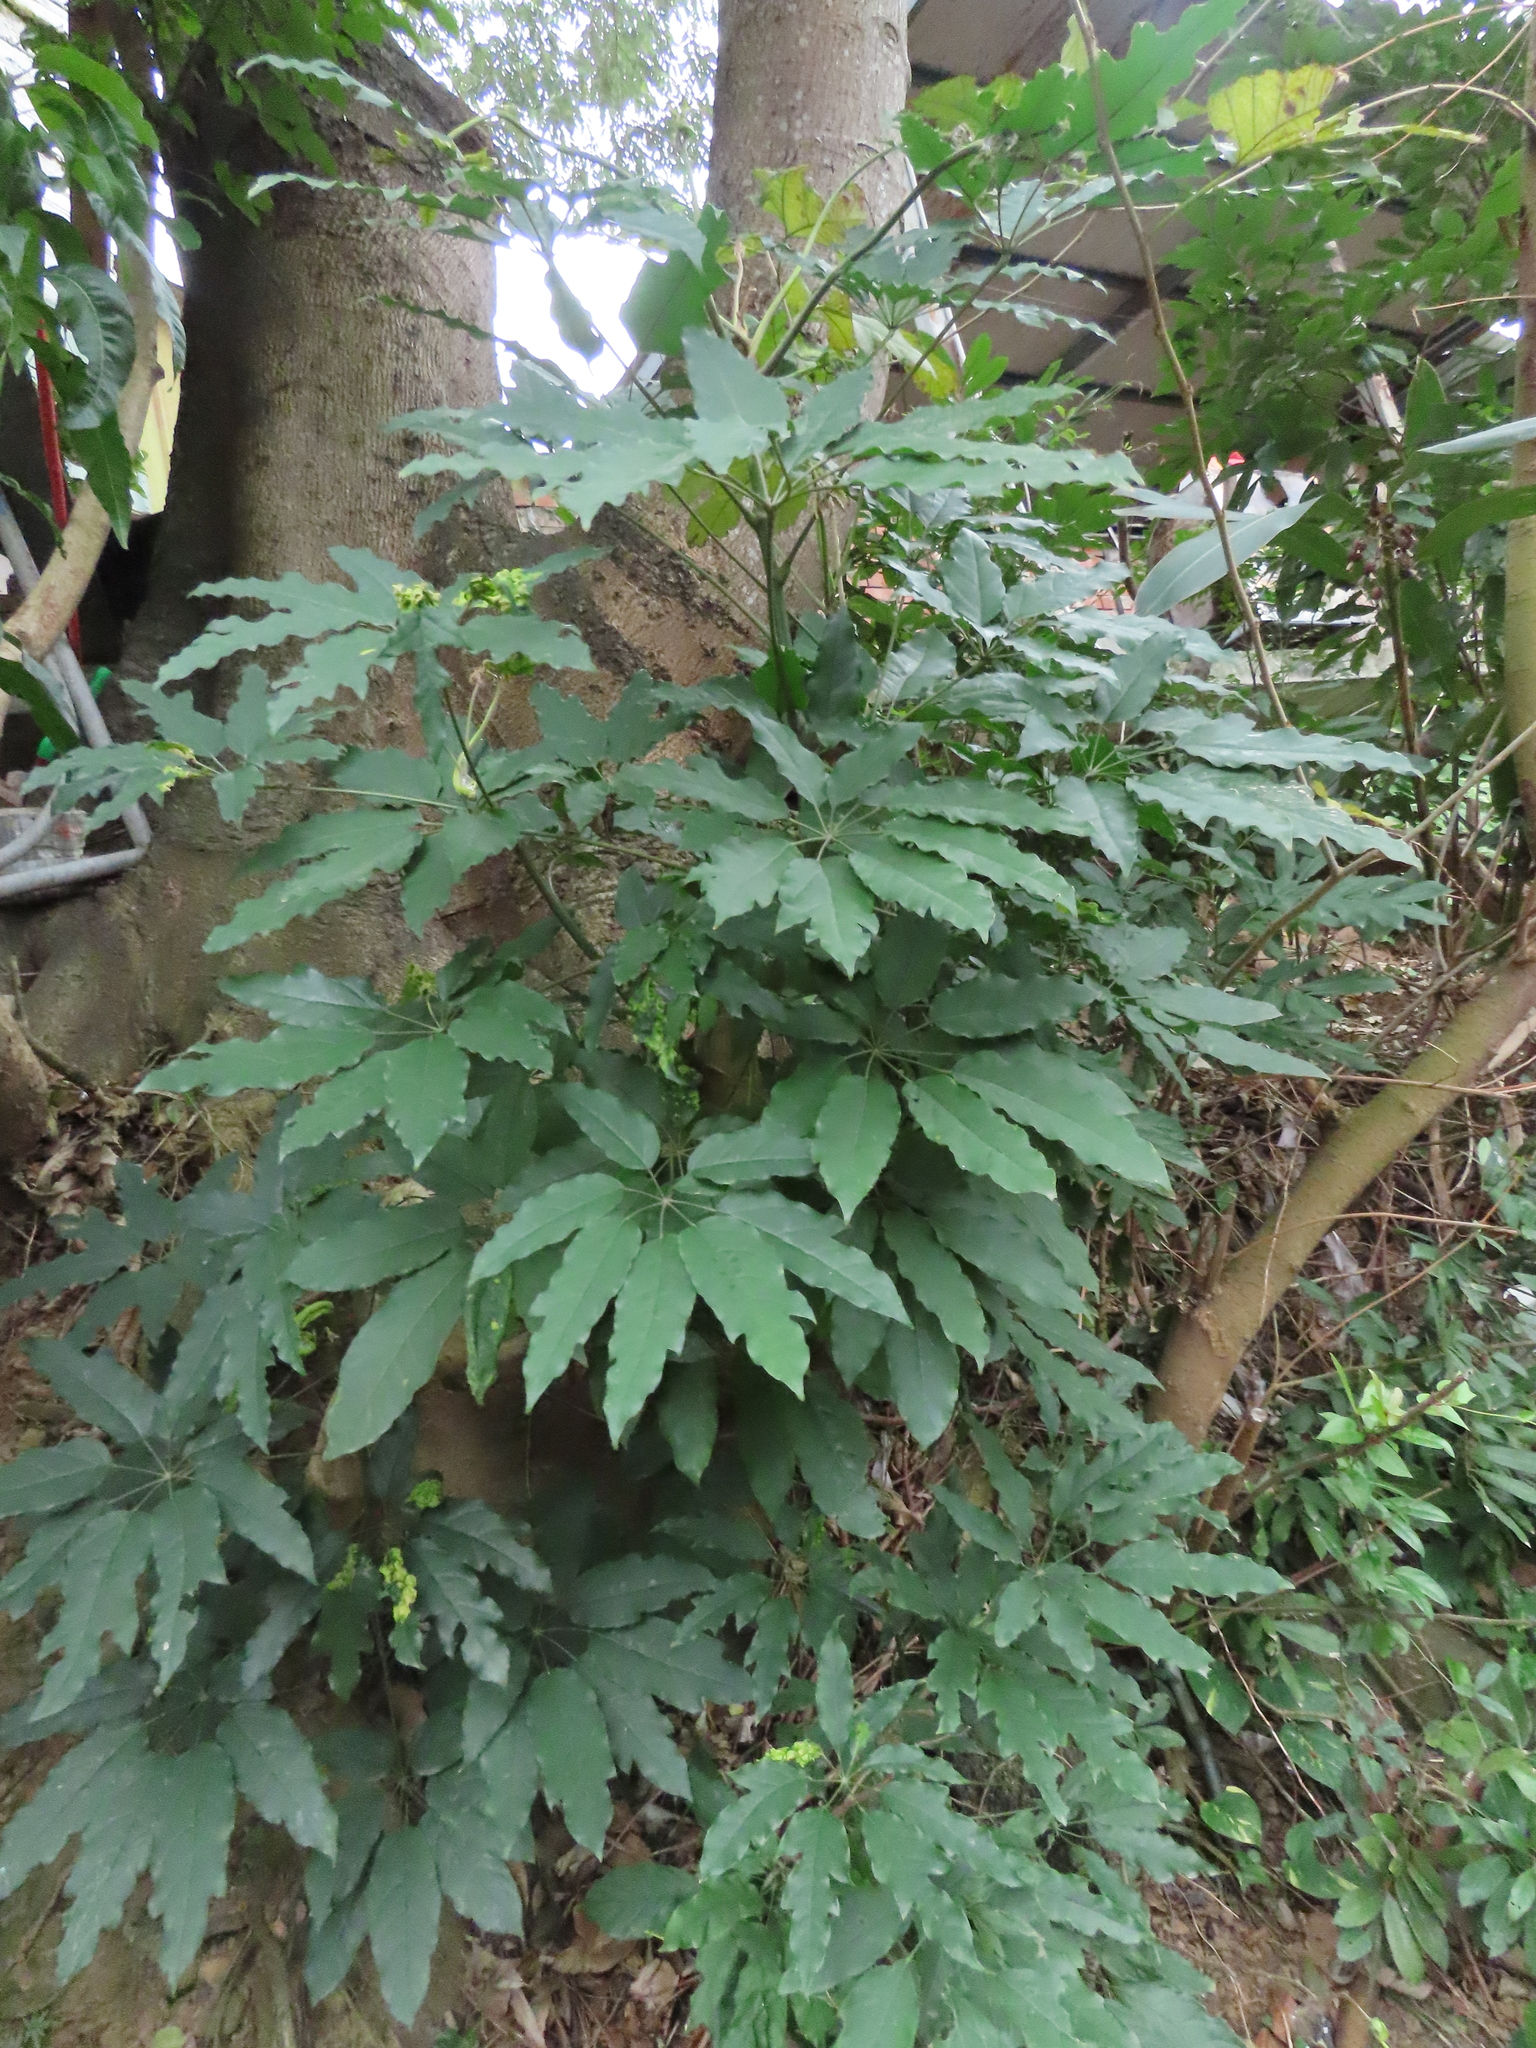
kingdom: Plantae
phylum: Tracheophyta
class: Magnoliopsida
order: Apiales
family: Araliaceae
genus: Heptapleurum
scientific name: Heptapleurum heptaphyllum
